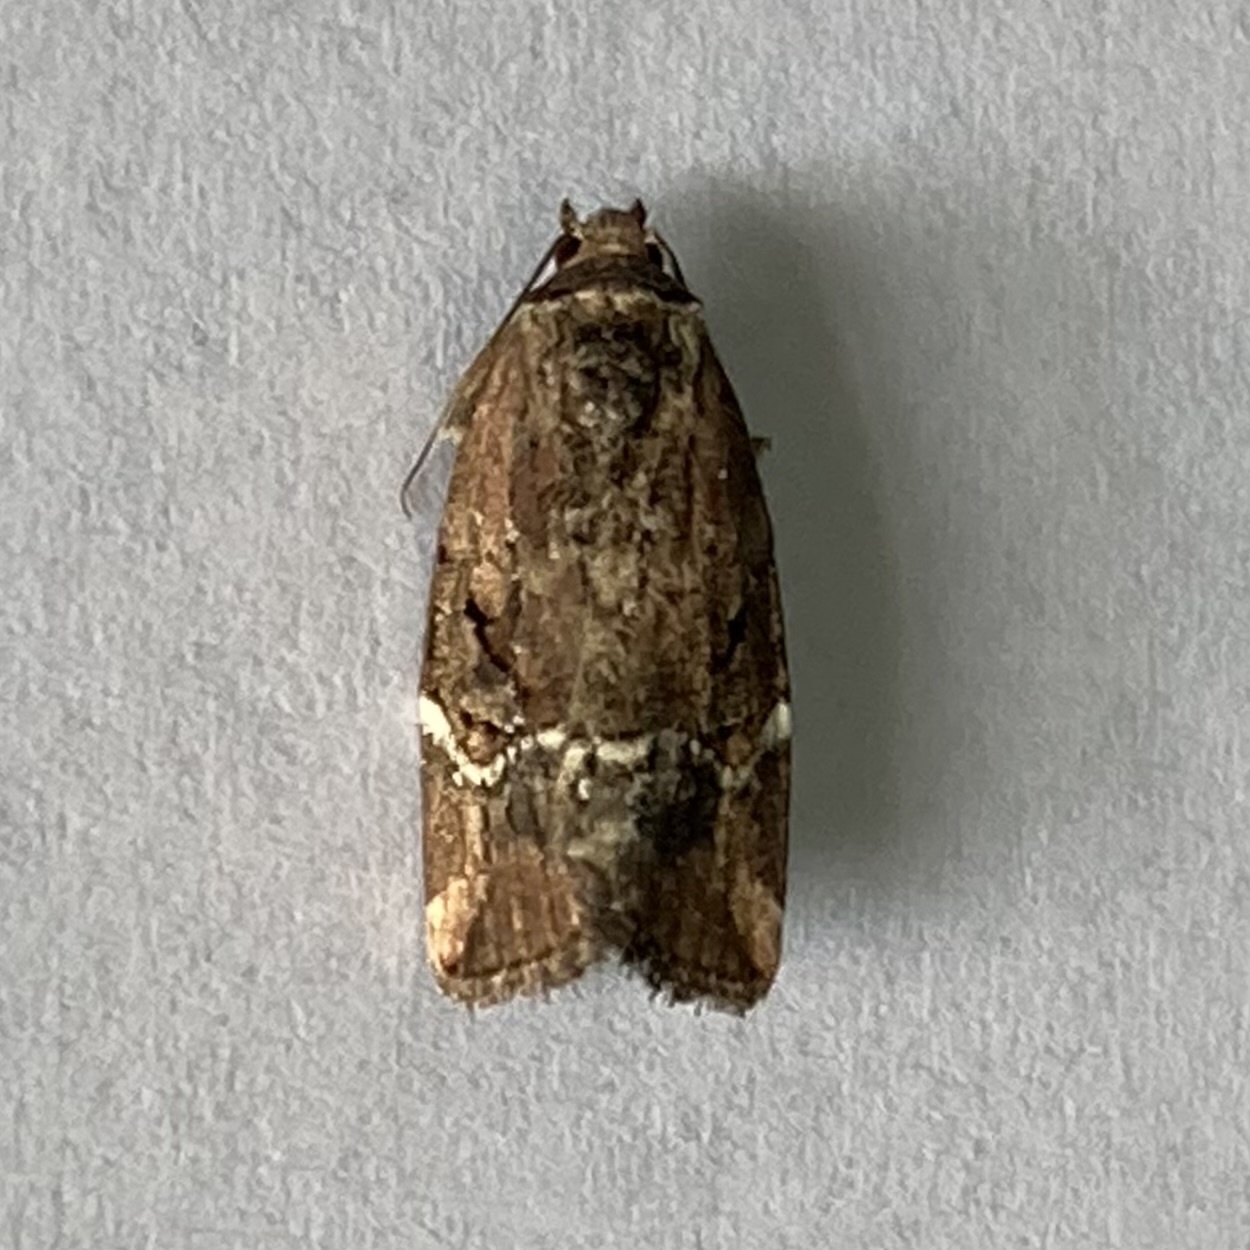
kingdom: Animalia
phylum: Arthropoda
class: Insecta
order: Lepidoptera
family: Noctuidae
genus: Elaphria
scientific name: Elaphria versicolor
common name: Fir harlequin
